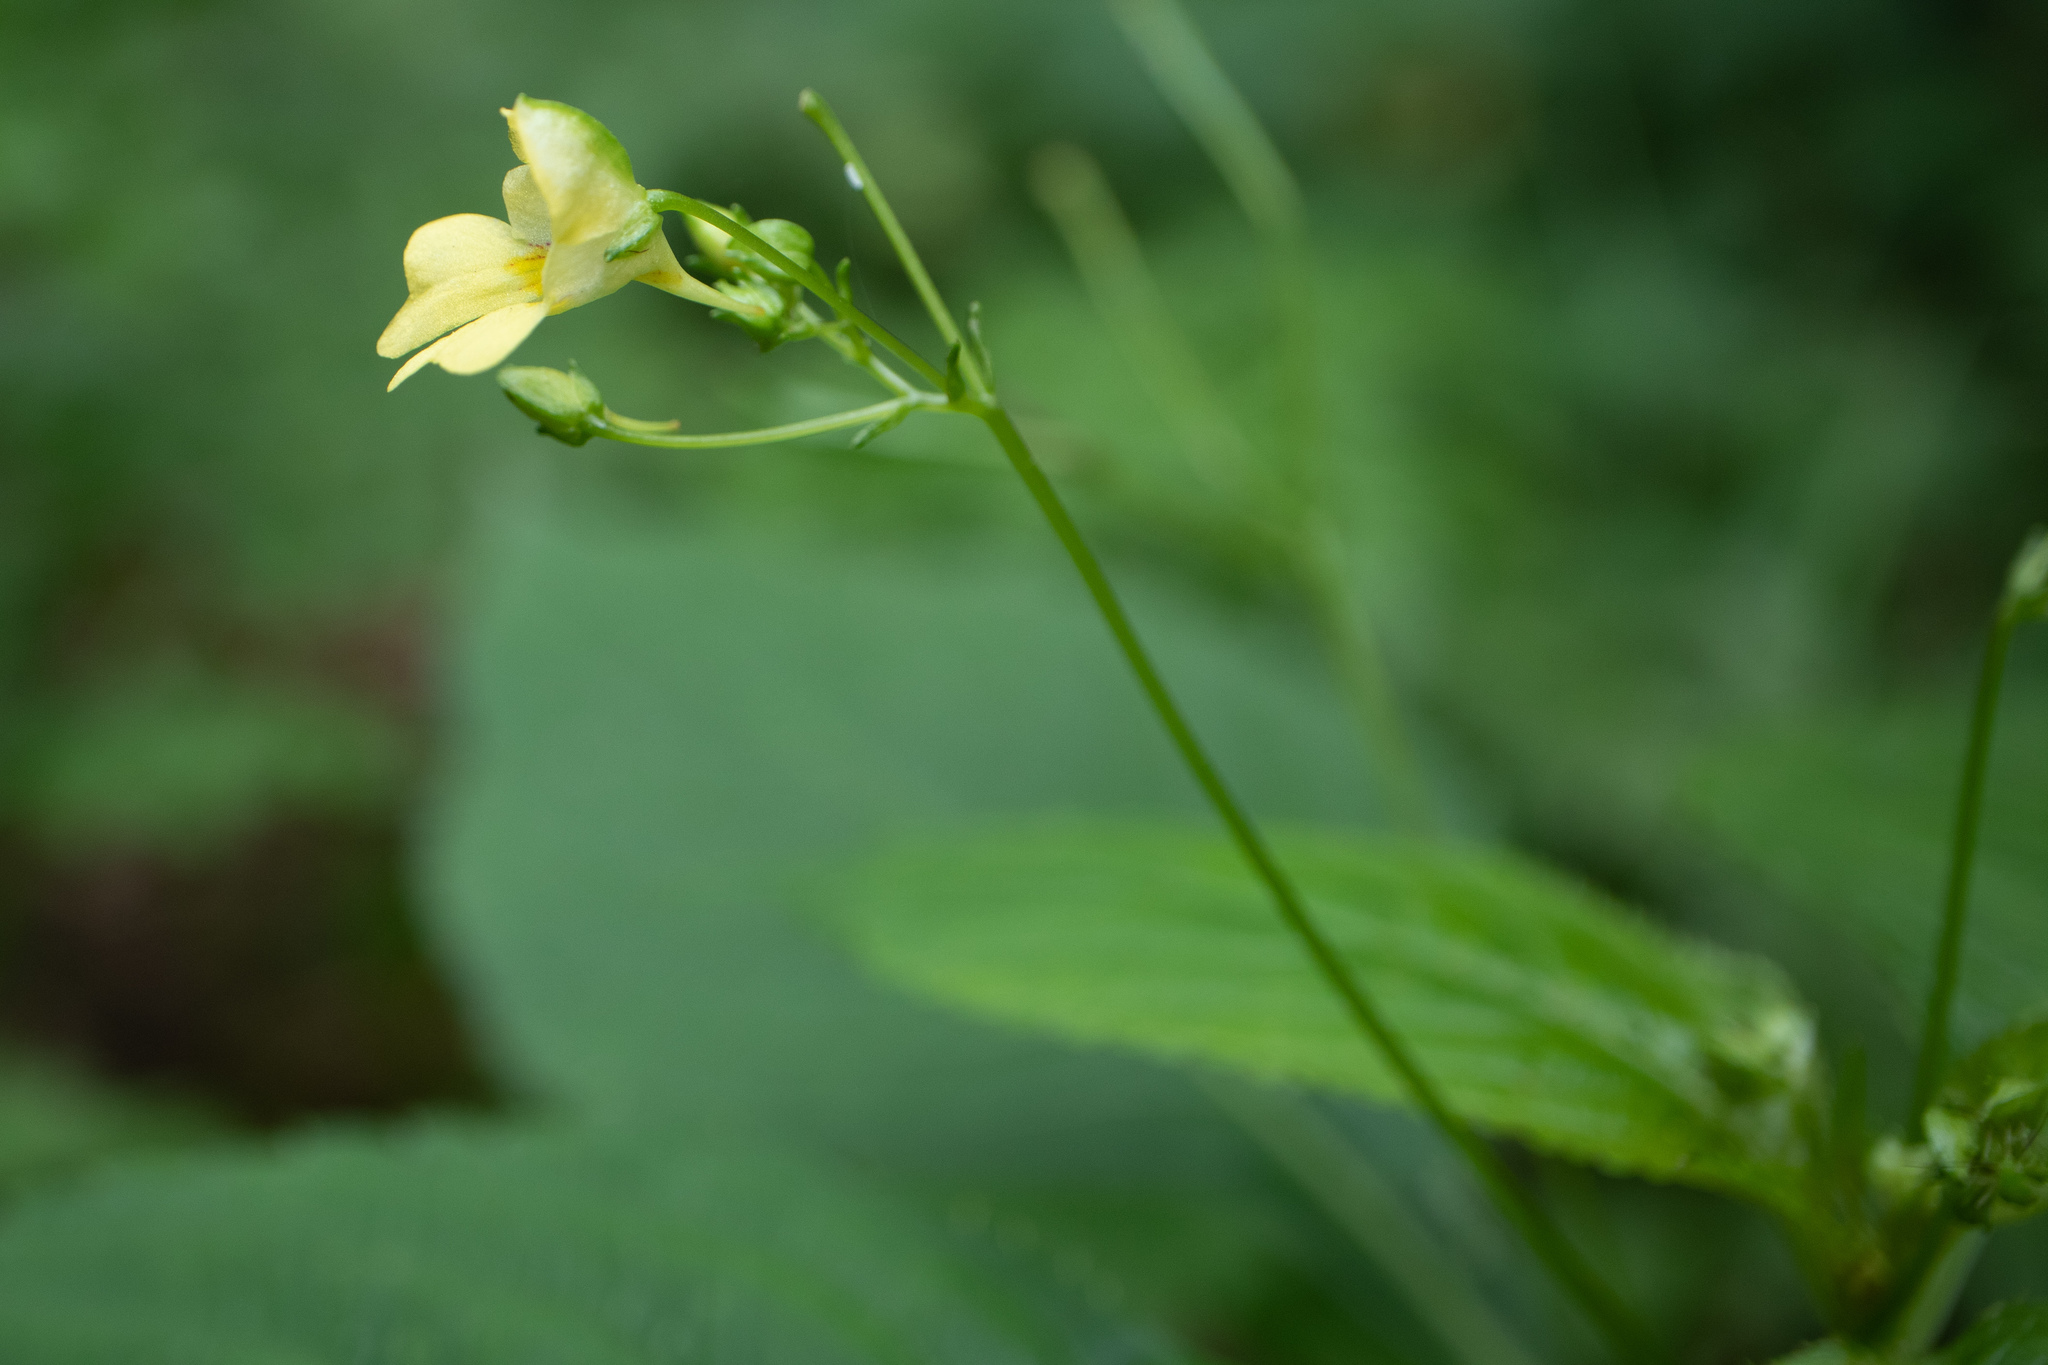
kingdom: Plantae
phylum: Tracheophyta
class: Magnoliopsida
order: Ericales
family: Balsaminaceae
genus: Impatiens
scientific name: Impatiens parviflora
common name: Small balsam
